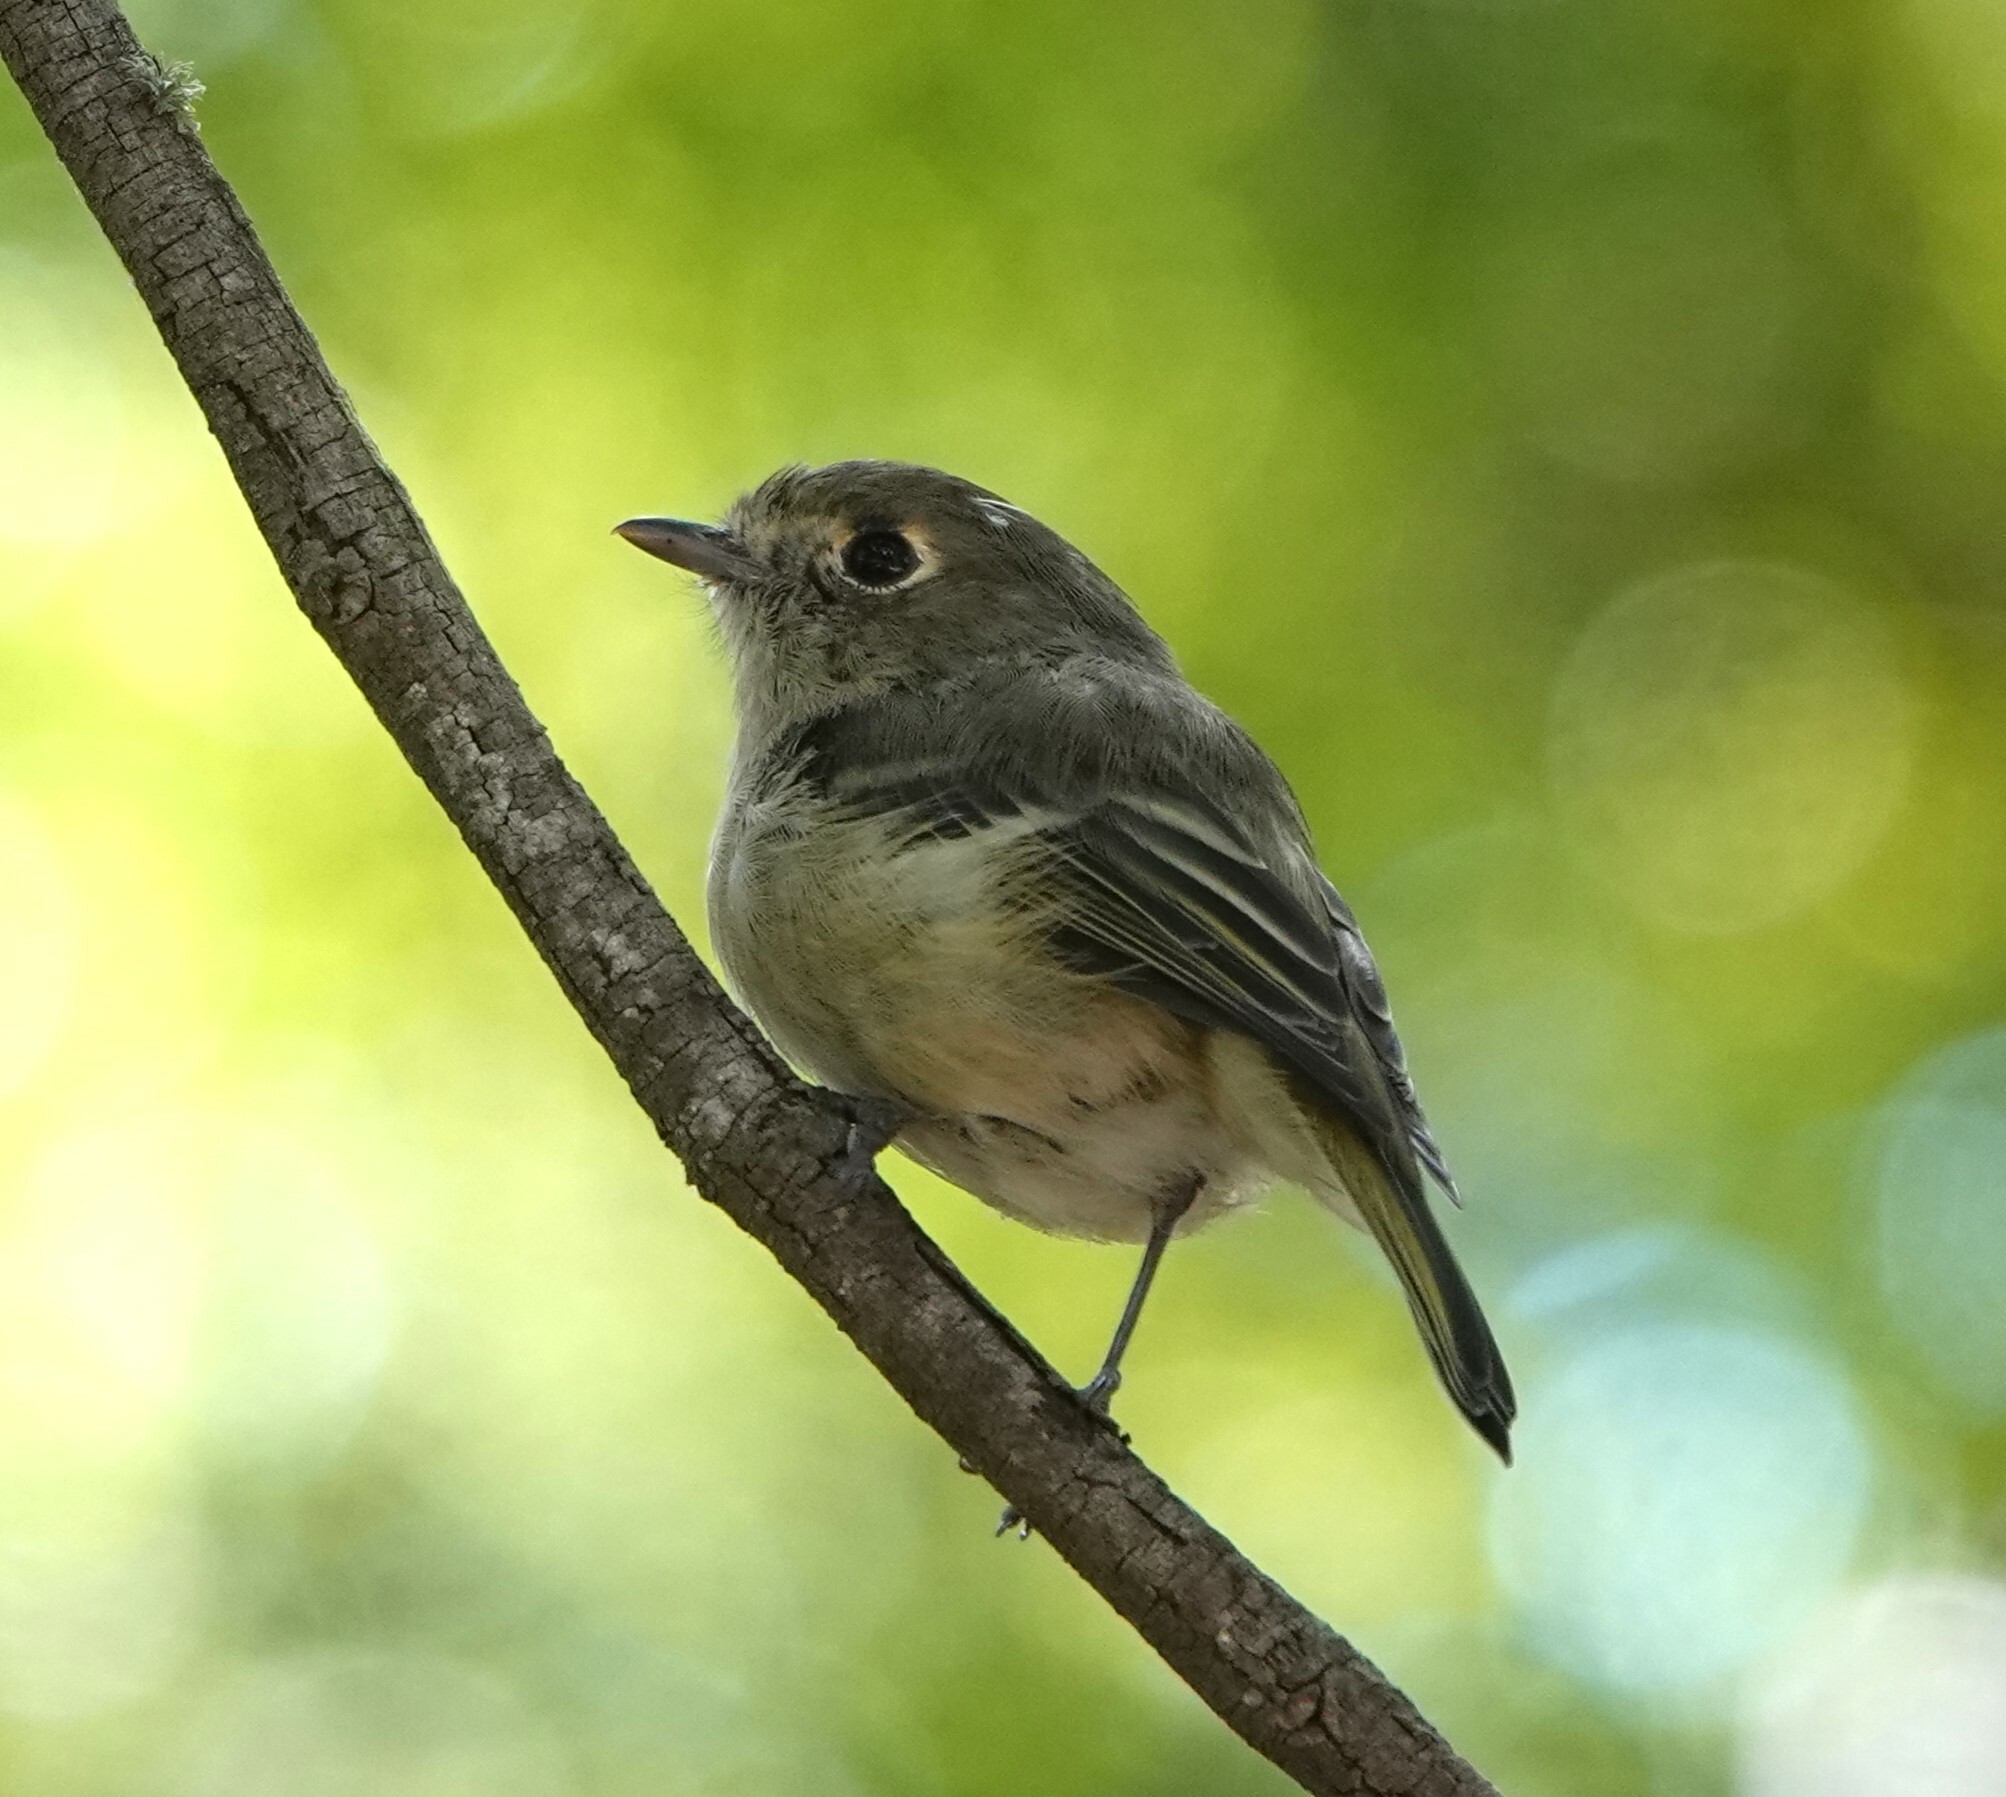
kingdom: Animalia
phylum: Chordata
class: Aves
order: Passeriformes
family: Vireonidae
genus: Vireo
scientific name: Vireo huttoni
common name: Hutton's vireo
